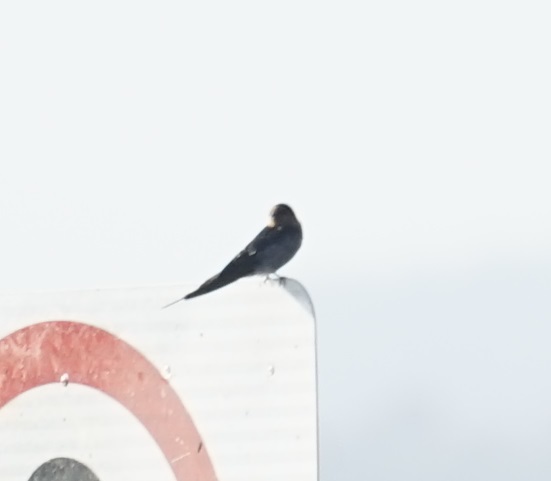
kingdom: Animalia
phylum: Chordata
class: Aves
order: Passeriformes
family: Hirundinidae
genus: Hirundo
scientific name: Hirundo neoxena
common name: Welcome swallow
